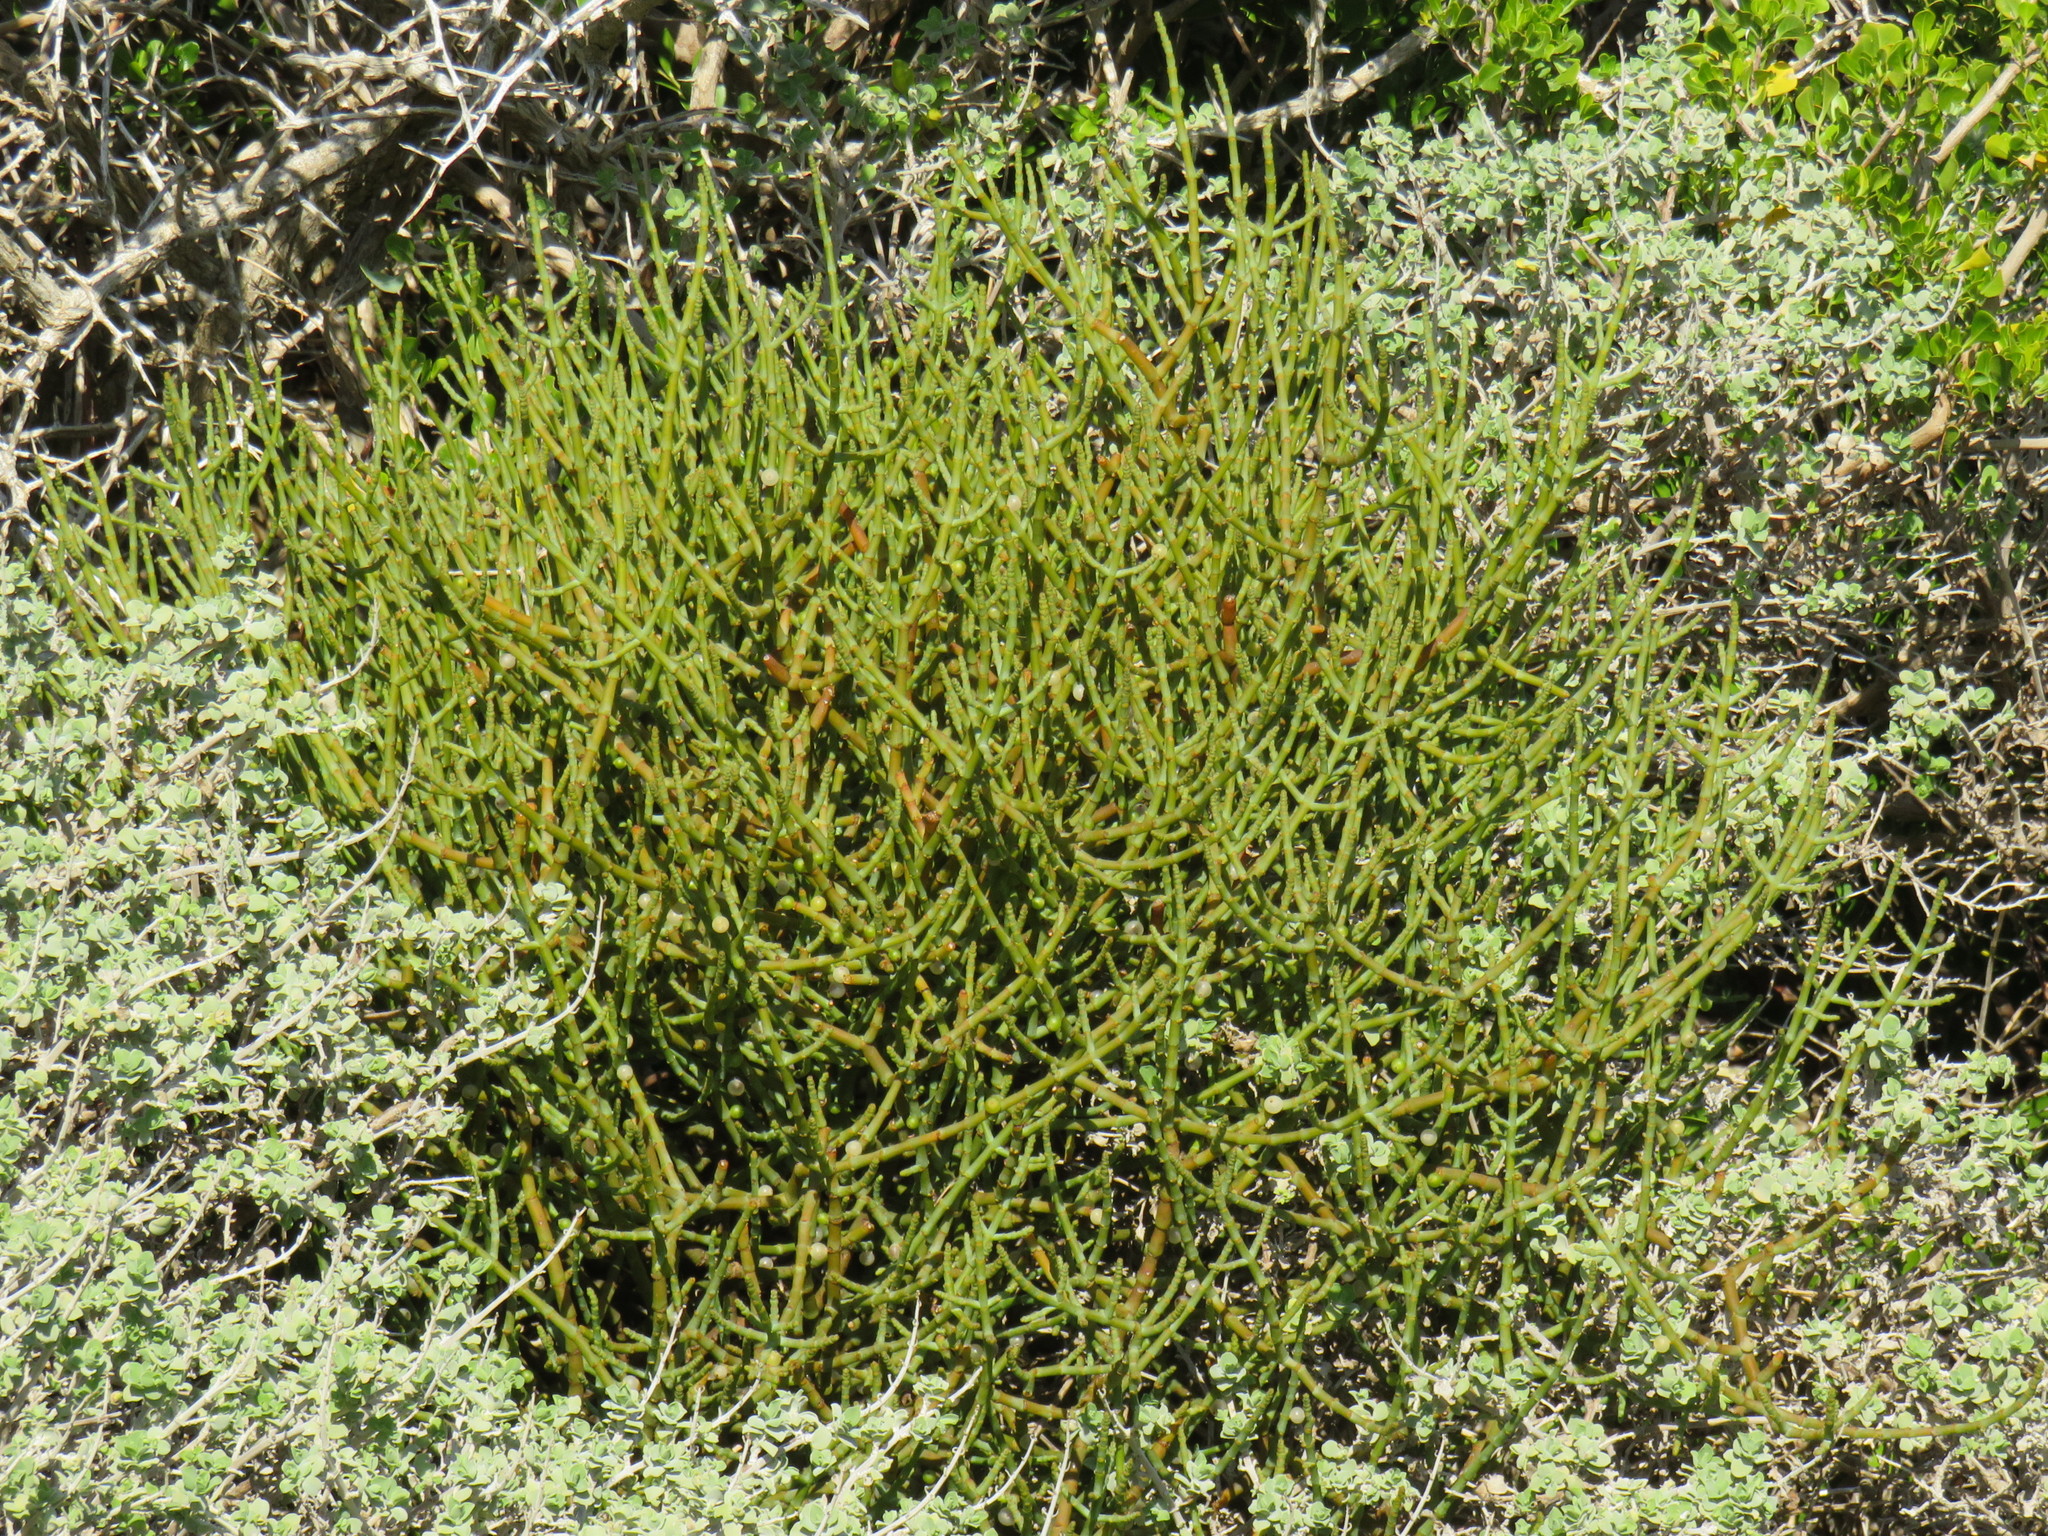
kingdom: Plantae
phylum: Tracheophyta
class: Magnoliopsida
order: Lamiales
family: Lamiaceae
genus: Salvia
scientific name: Salvia aurea
